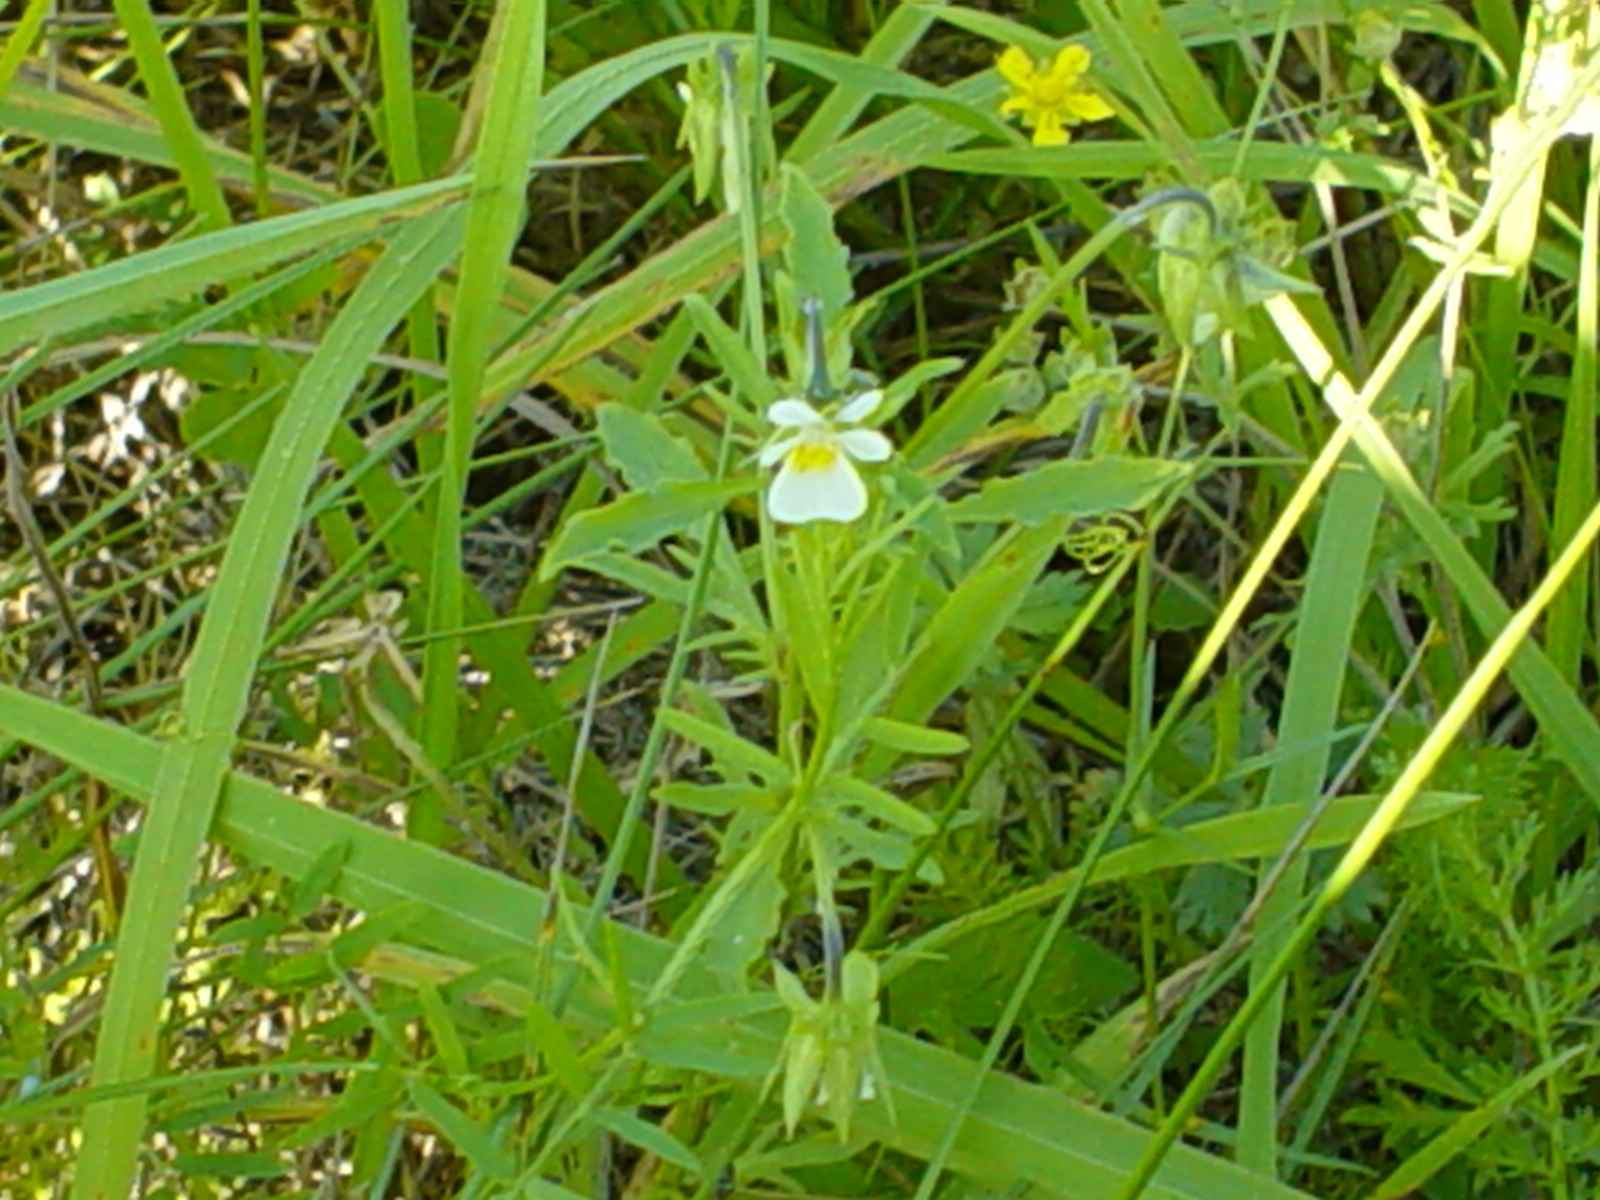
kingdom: Plantae
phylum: Tracheophyta
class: Magnoliopsida
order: Malpighiales
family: Violaceae
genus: Viola
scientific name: Viola arvensis
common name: Field pansy
